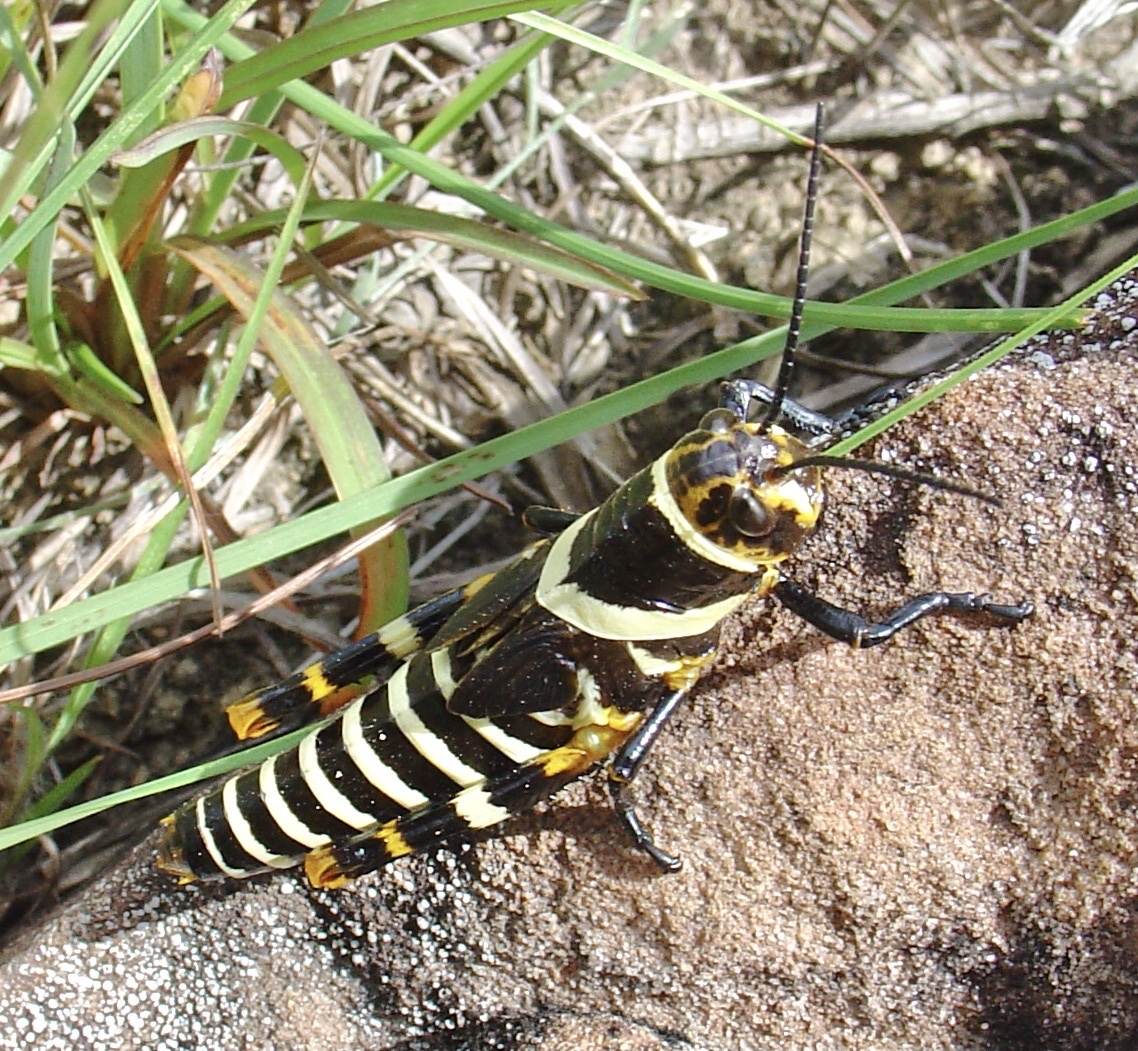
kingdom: Animalia
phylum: Arthropoda
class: Insecta
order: Orthoptera
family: Romaleidae
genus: Zoniopoda
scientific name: Zoniopoda exilipes
